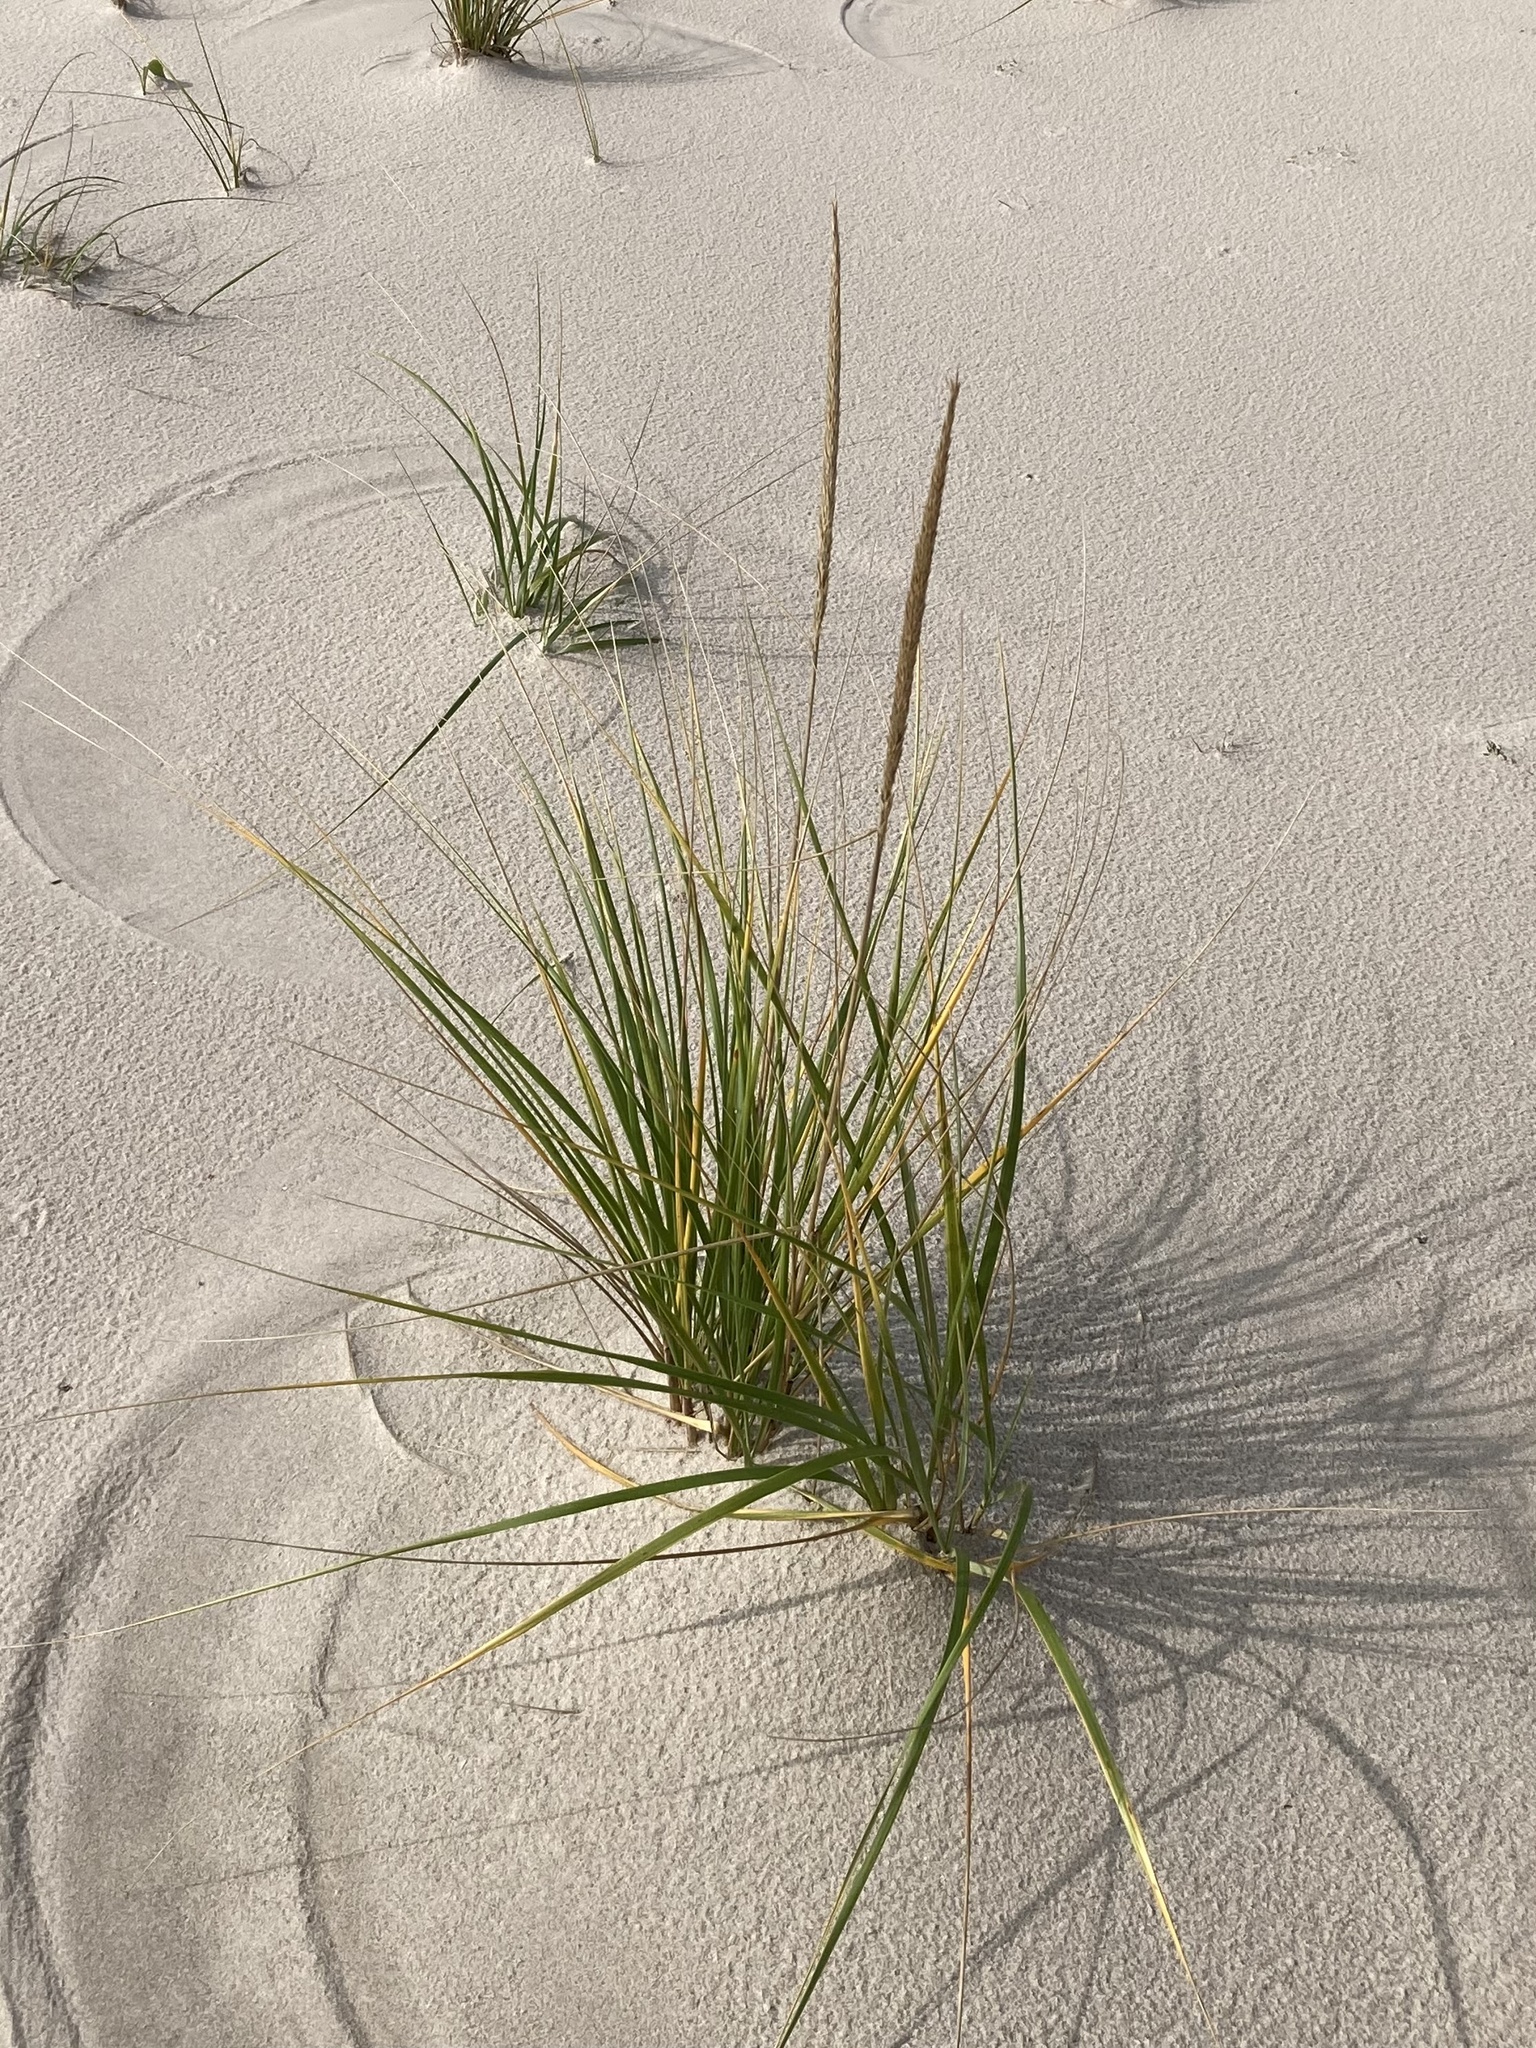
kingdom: Plantae
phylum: Tracheophyta
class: Liliopsida
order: Poales
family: Poaceae
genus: Calamagrostis
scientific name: Calamagrostis breviligulata
